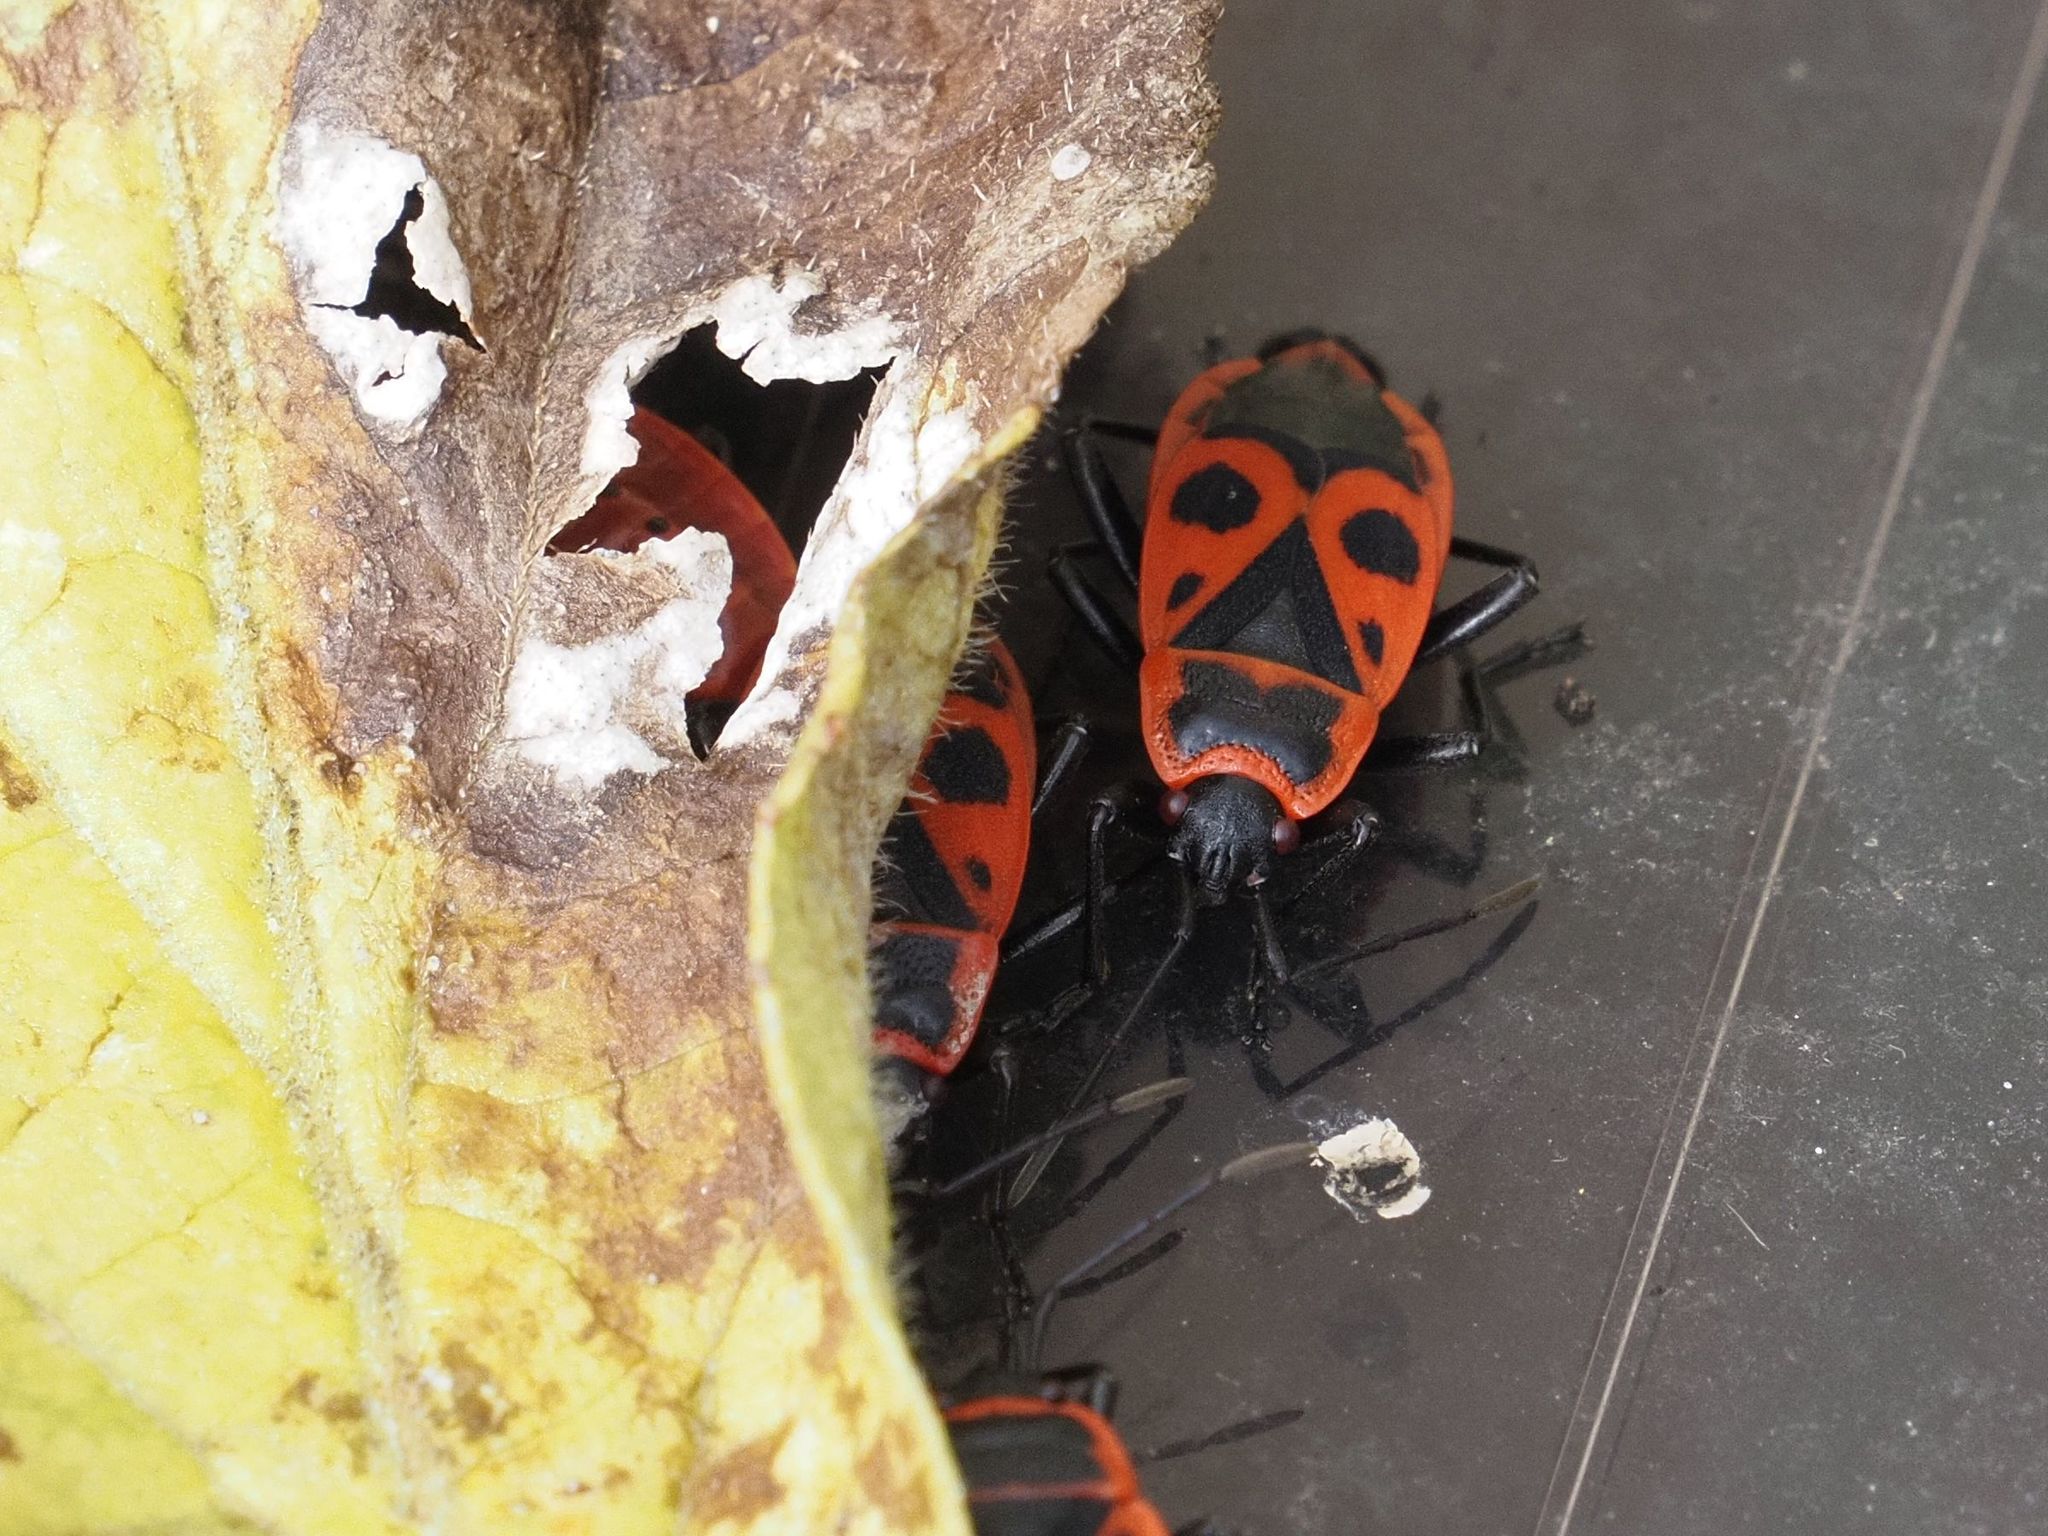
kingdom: Animalia
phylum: Arthropoda
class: Insecta
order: Hemiptera
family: Pyrrhocoridae
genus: Pyrrhocoris
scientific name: Pyrrhocoris apterus
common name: Firebug
